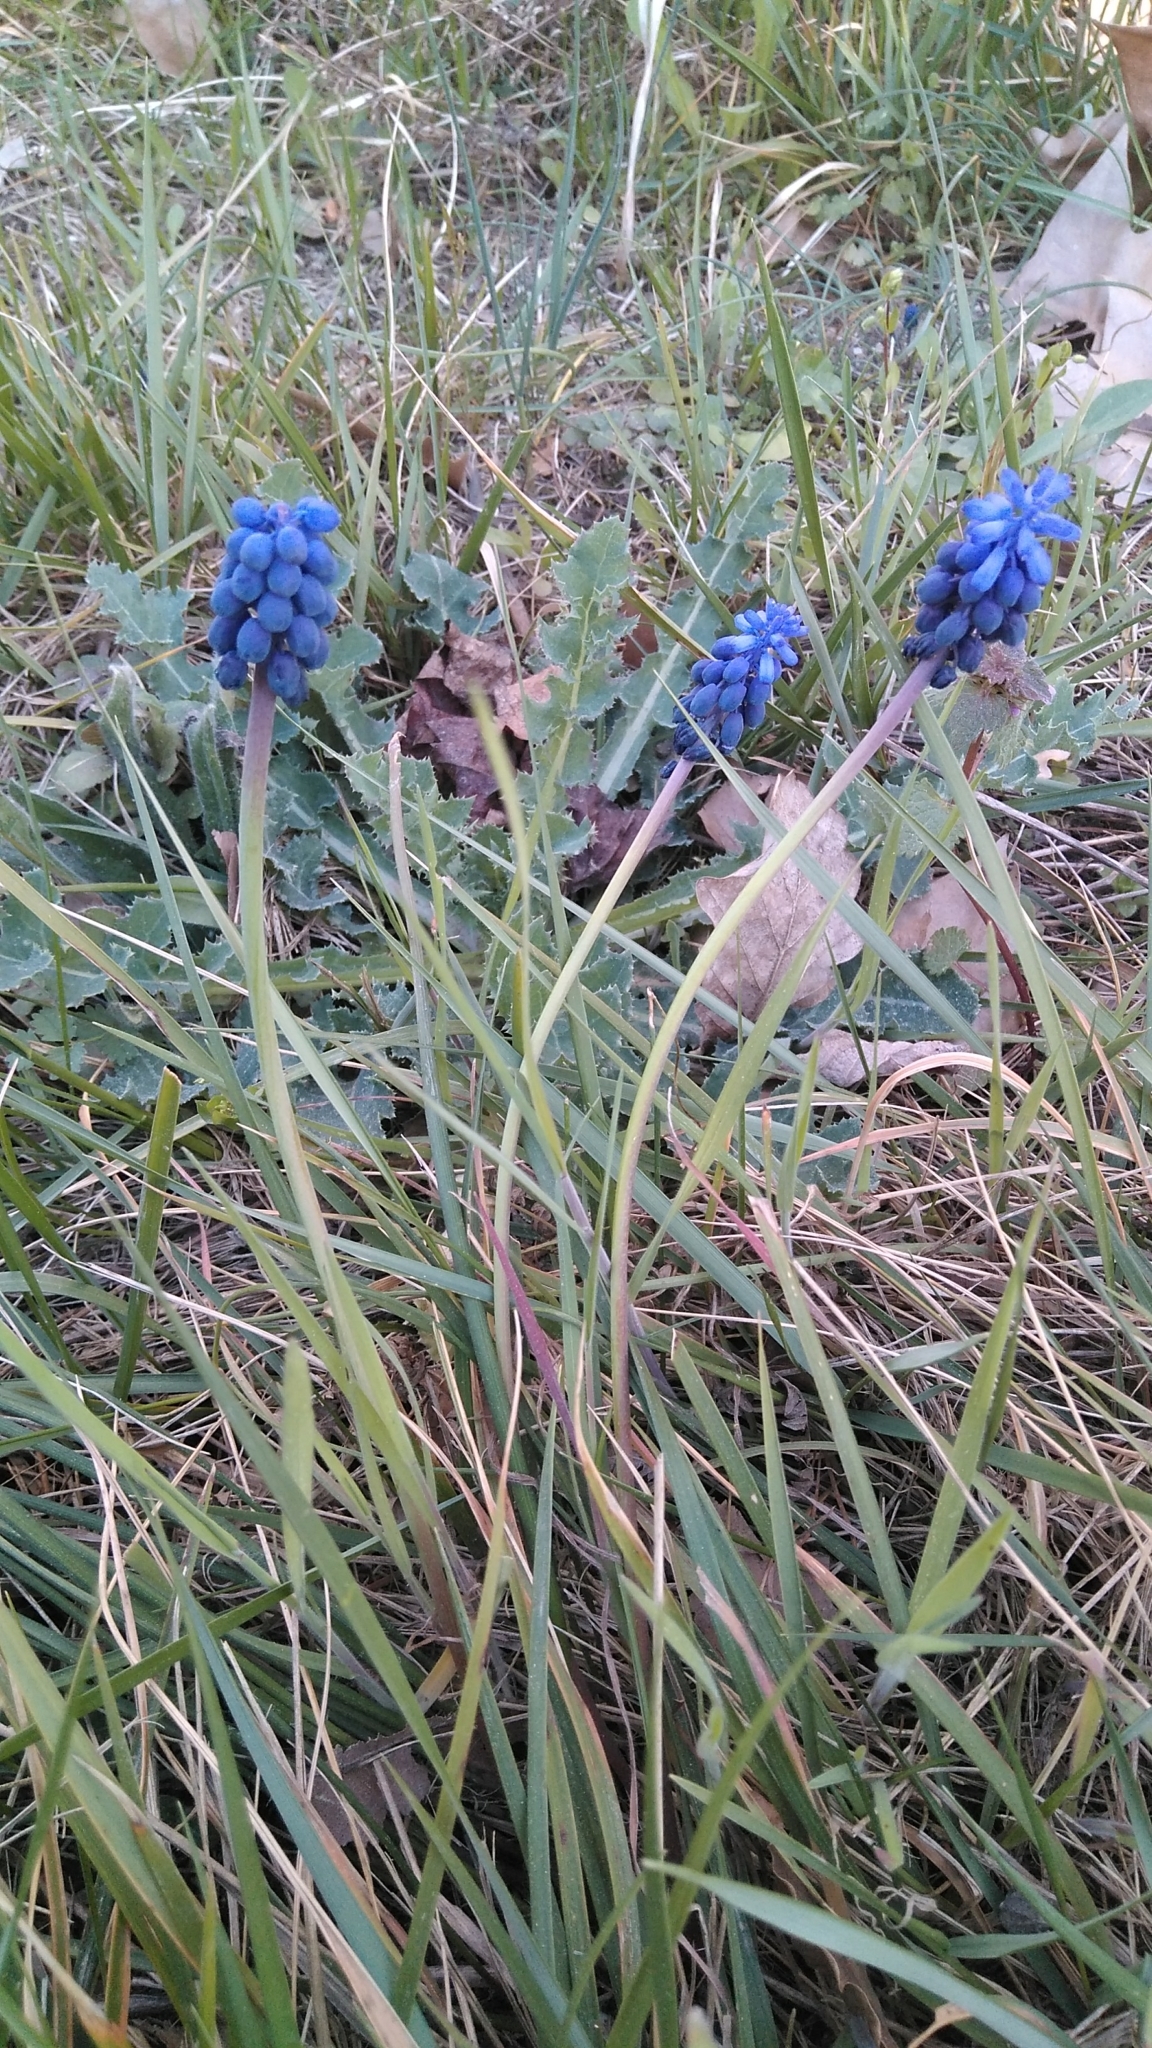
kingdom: Plantae
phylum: Tracheophyta
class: Liliopsida
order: Asparagales
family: Asparagaceae
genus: Muscari
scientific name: Muscari neglectum
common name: Grape-hyacinth
